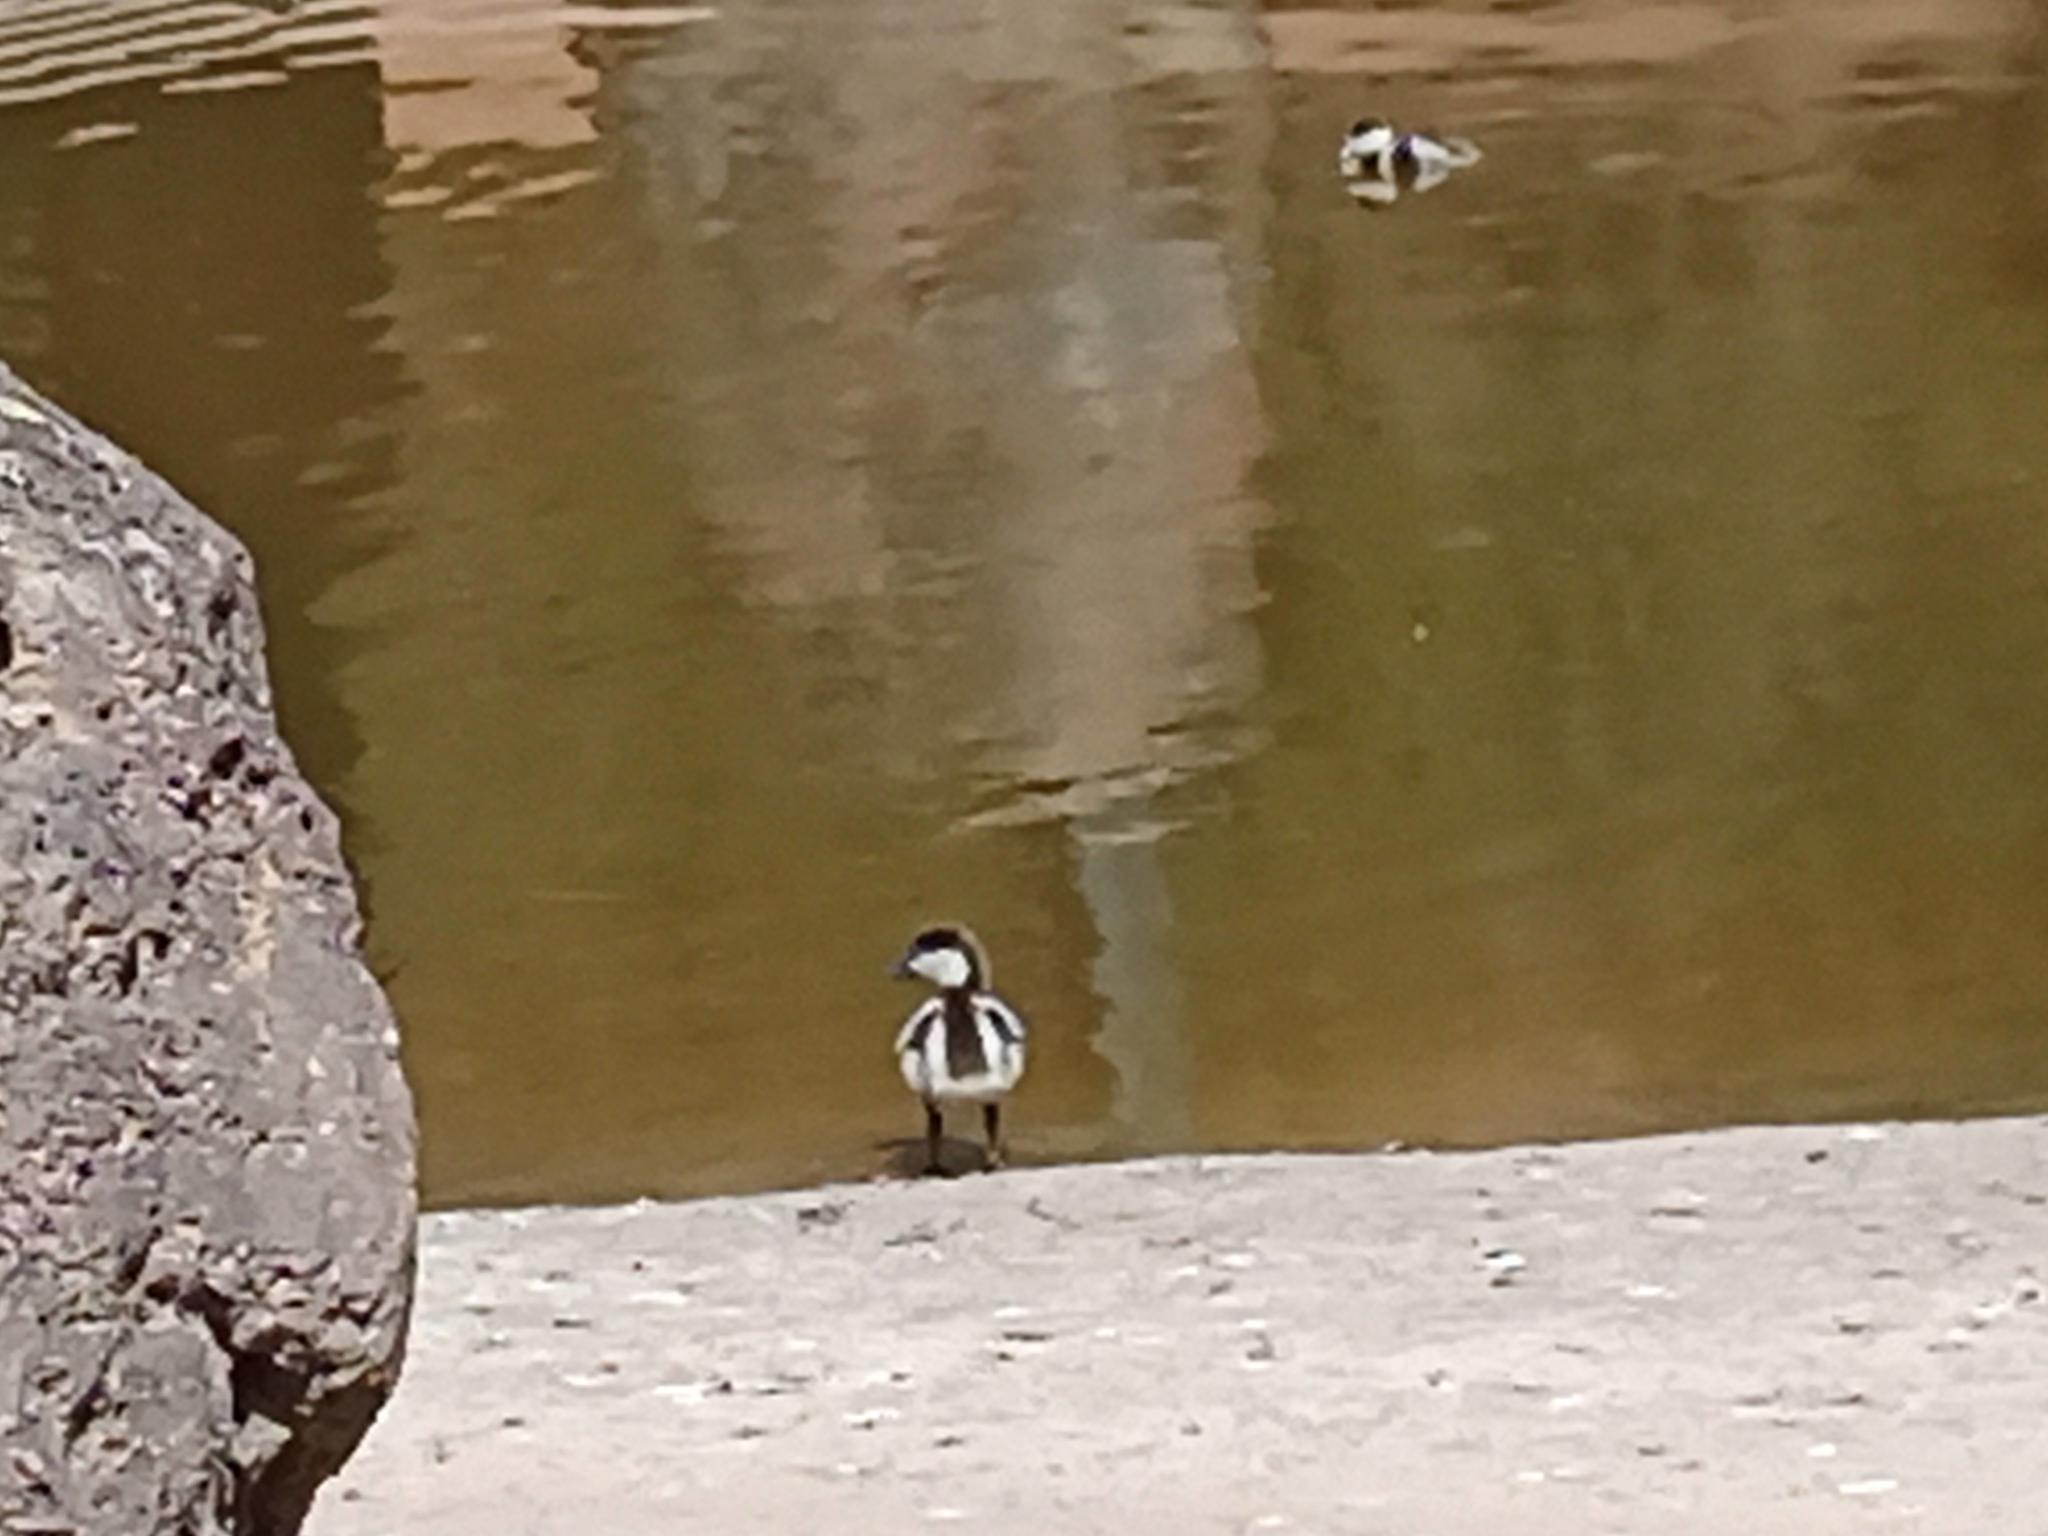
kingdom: Animalia
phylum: Chordata
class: Aves
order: Anseriformes
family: Anatidae
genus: Tadorna
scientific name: Tadorna ferruginea
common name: Ruddy shelduck
